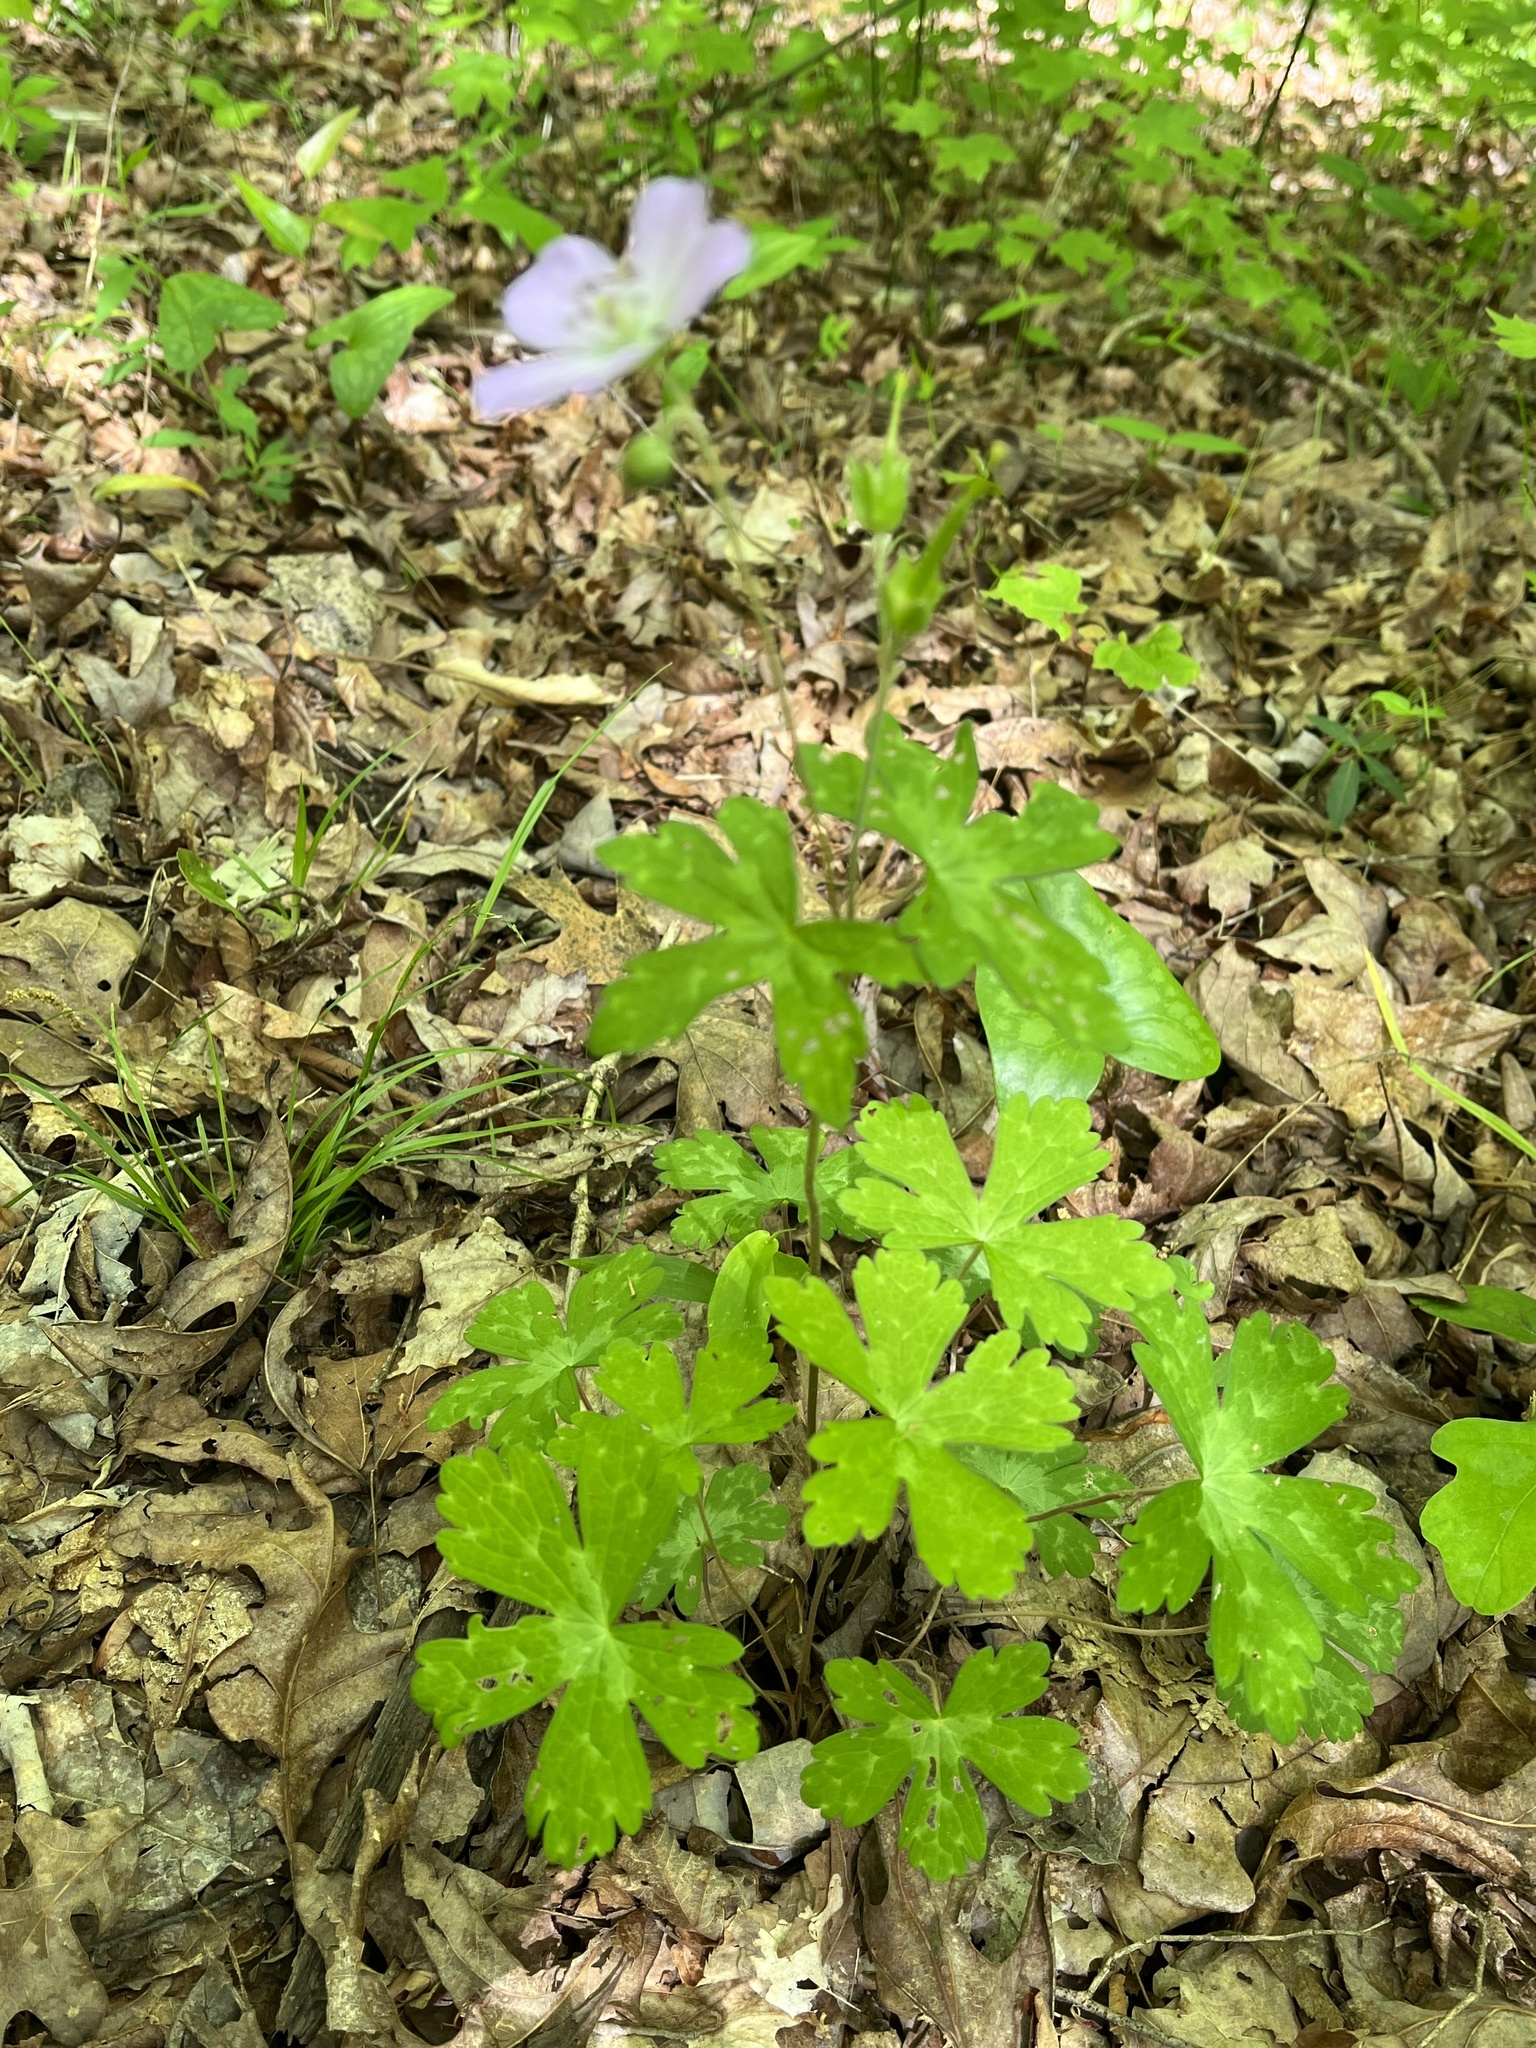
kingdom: Plantae
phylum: Tracheophyta
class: Magnoliopsida
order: Geraniales
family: Geraniaceae
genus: Geranium
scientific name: Geranium maculatum
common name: Spotted geranium
